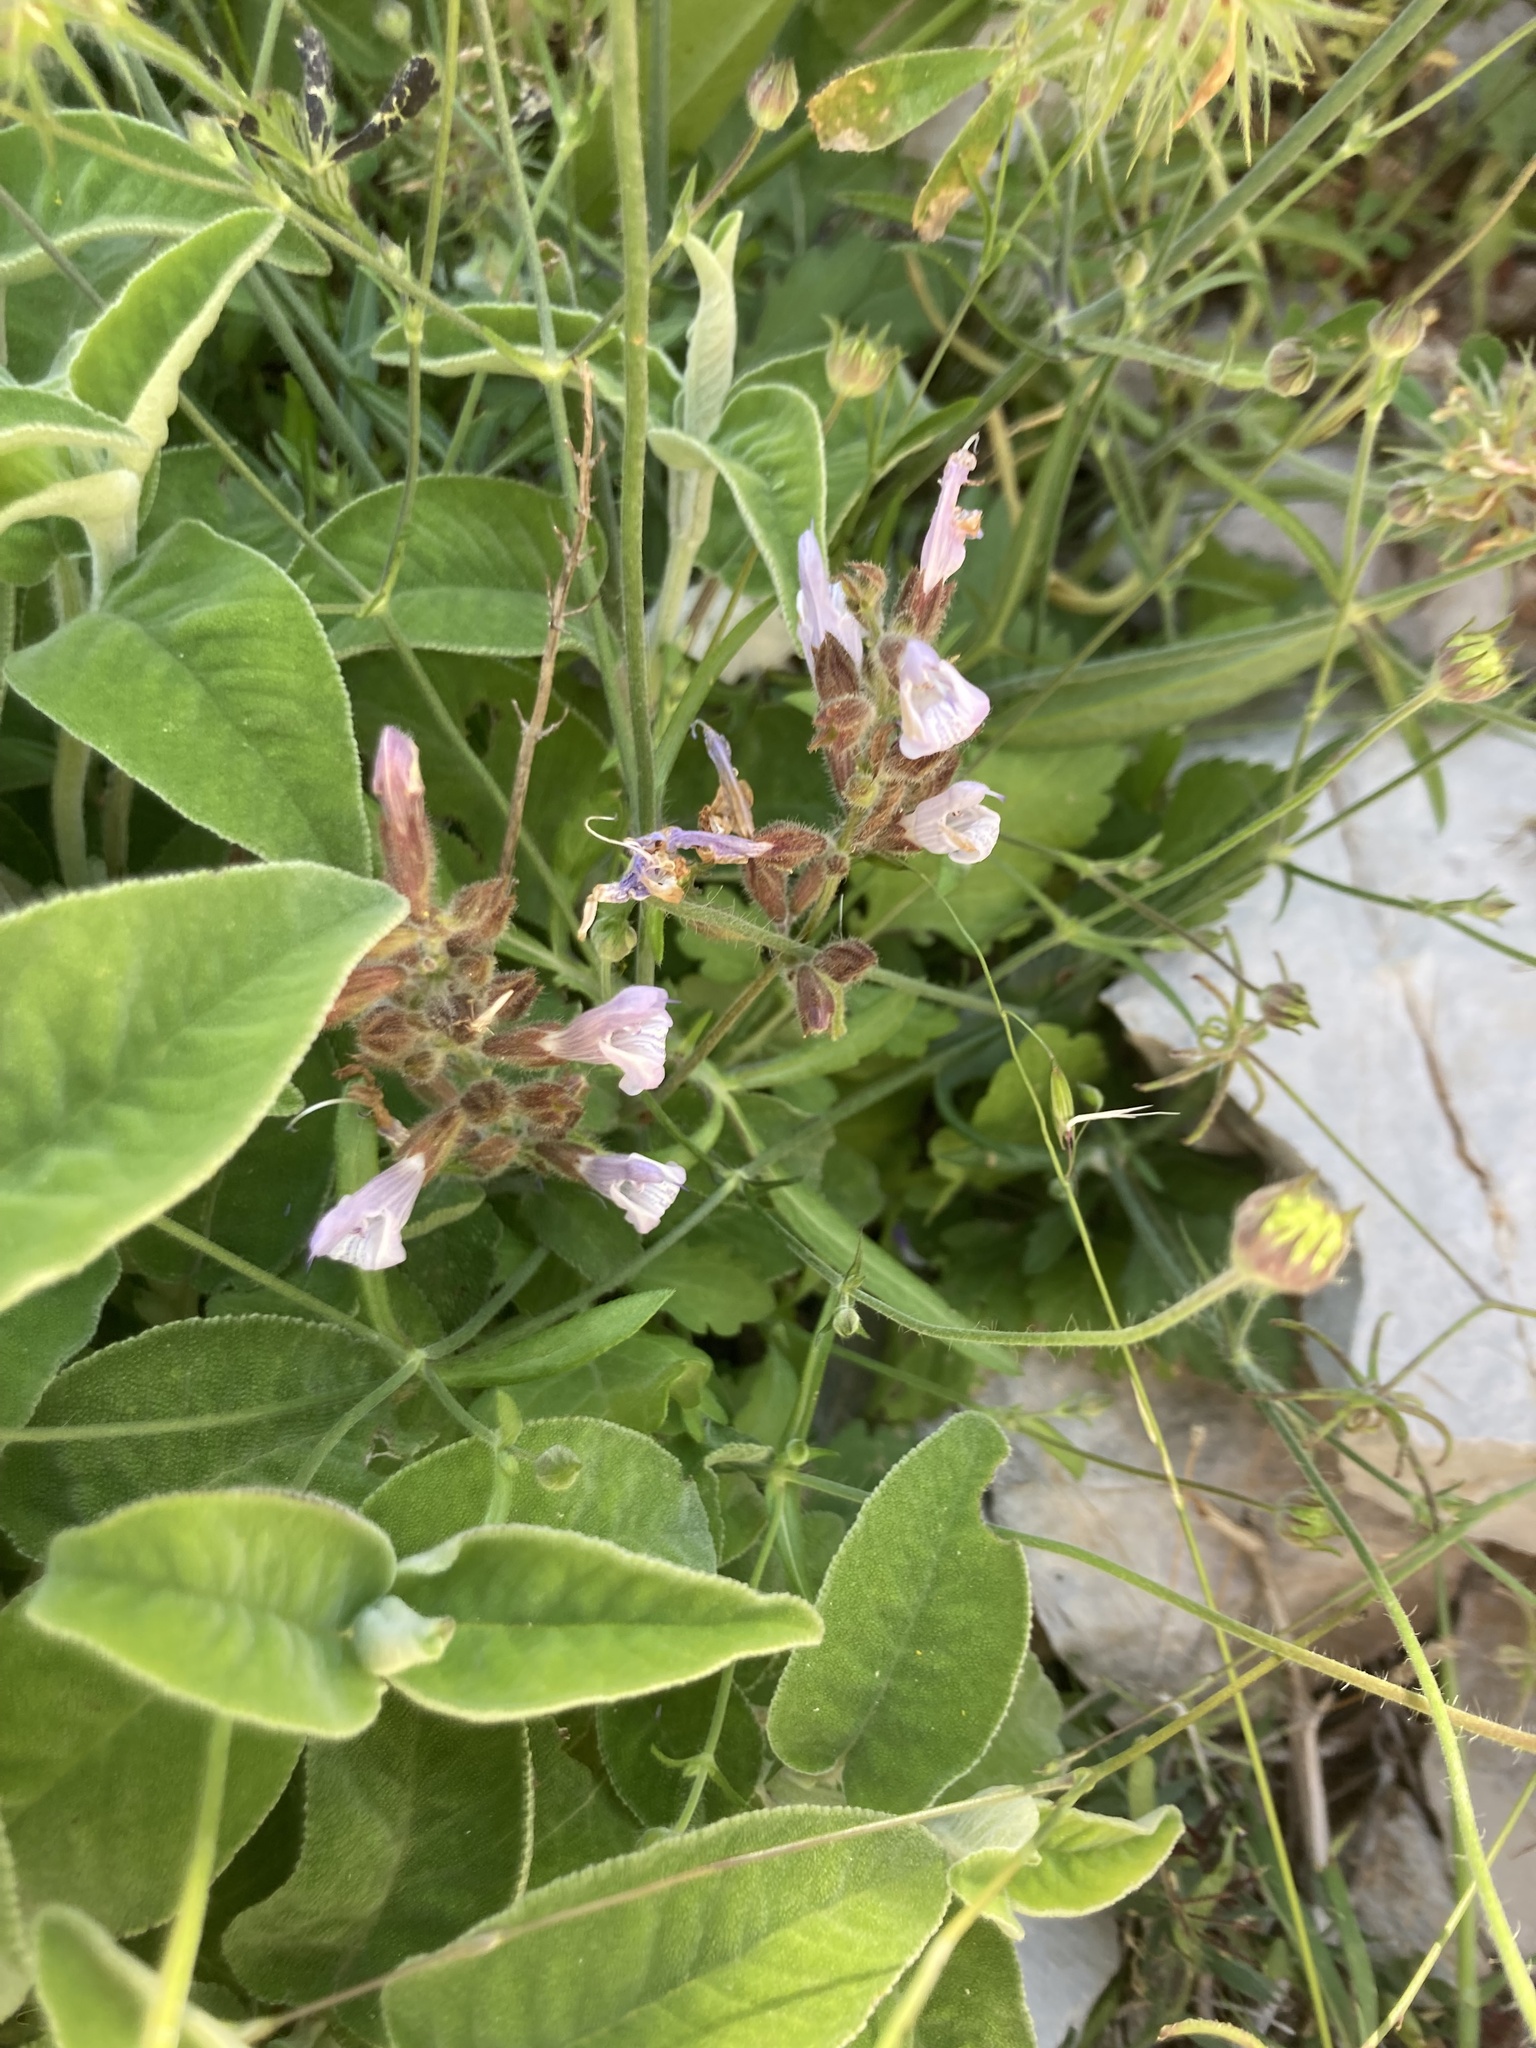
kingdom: Plantae
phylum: Tracheophyta
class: Magnoliopsida
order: Lamiales
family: Lamiaceae
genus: Salvia
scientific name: Salvia fruticosa
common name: Greek sage
